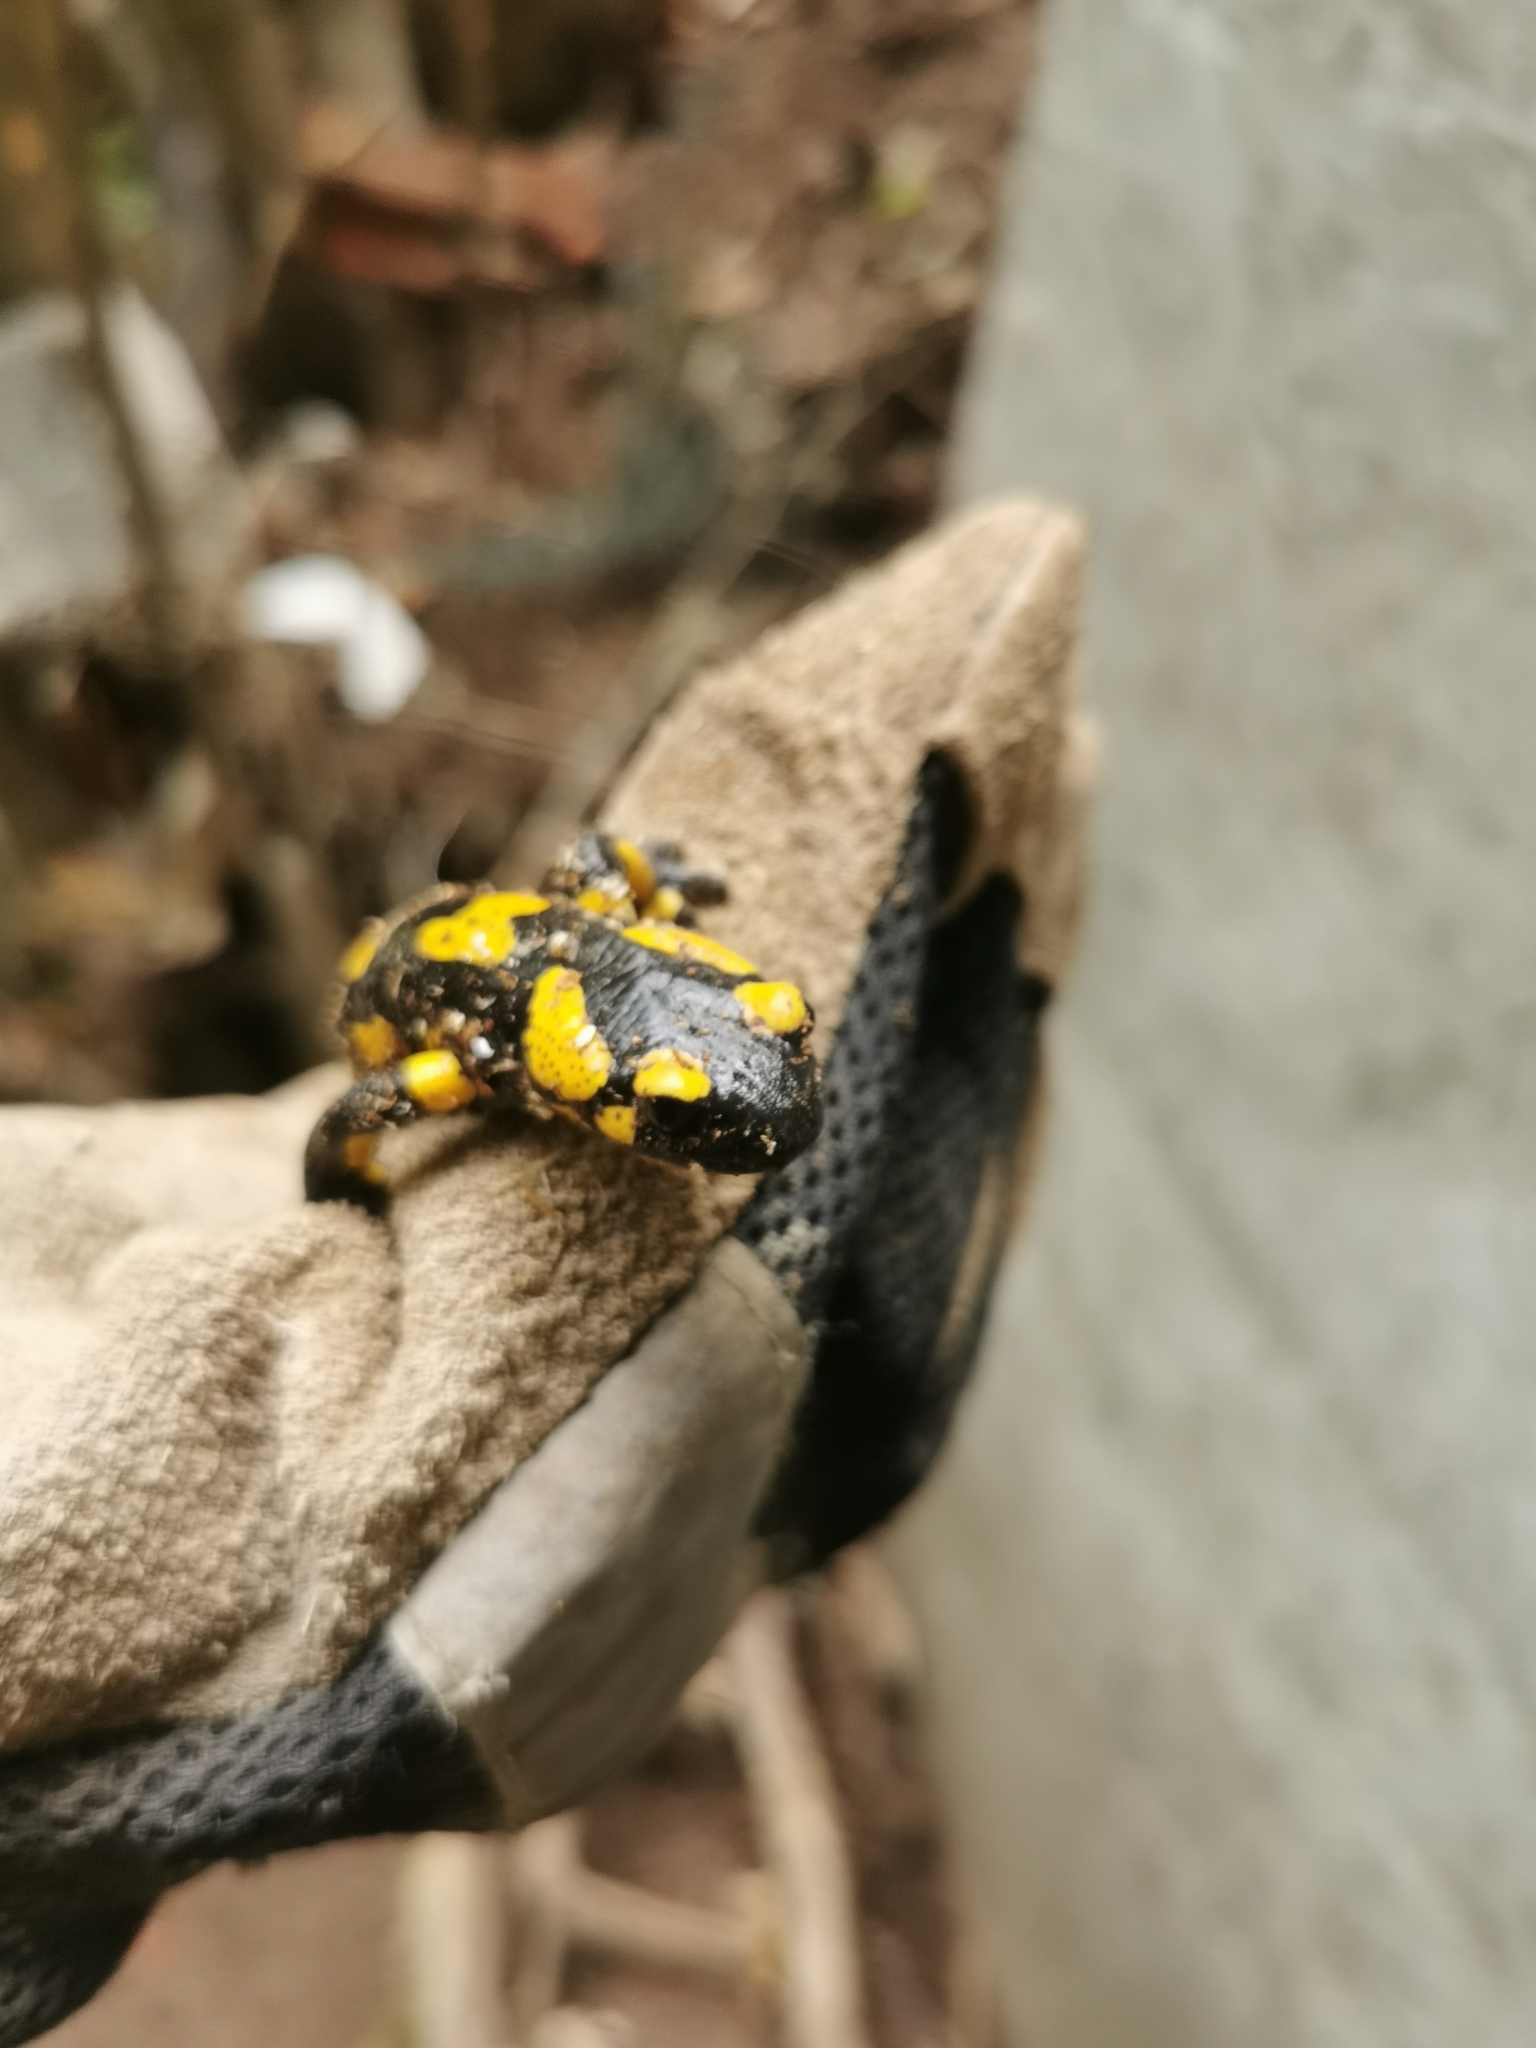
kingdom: Animalia
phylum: Chordata
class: Amphibia
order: Caudata
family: Salamandridae
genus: Salamandra
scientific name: Salamandra salamandra
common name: Fire salamander
